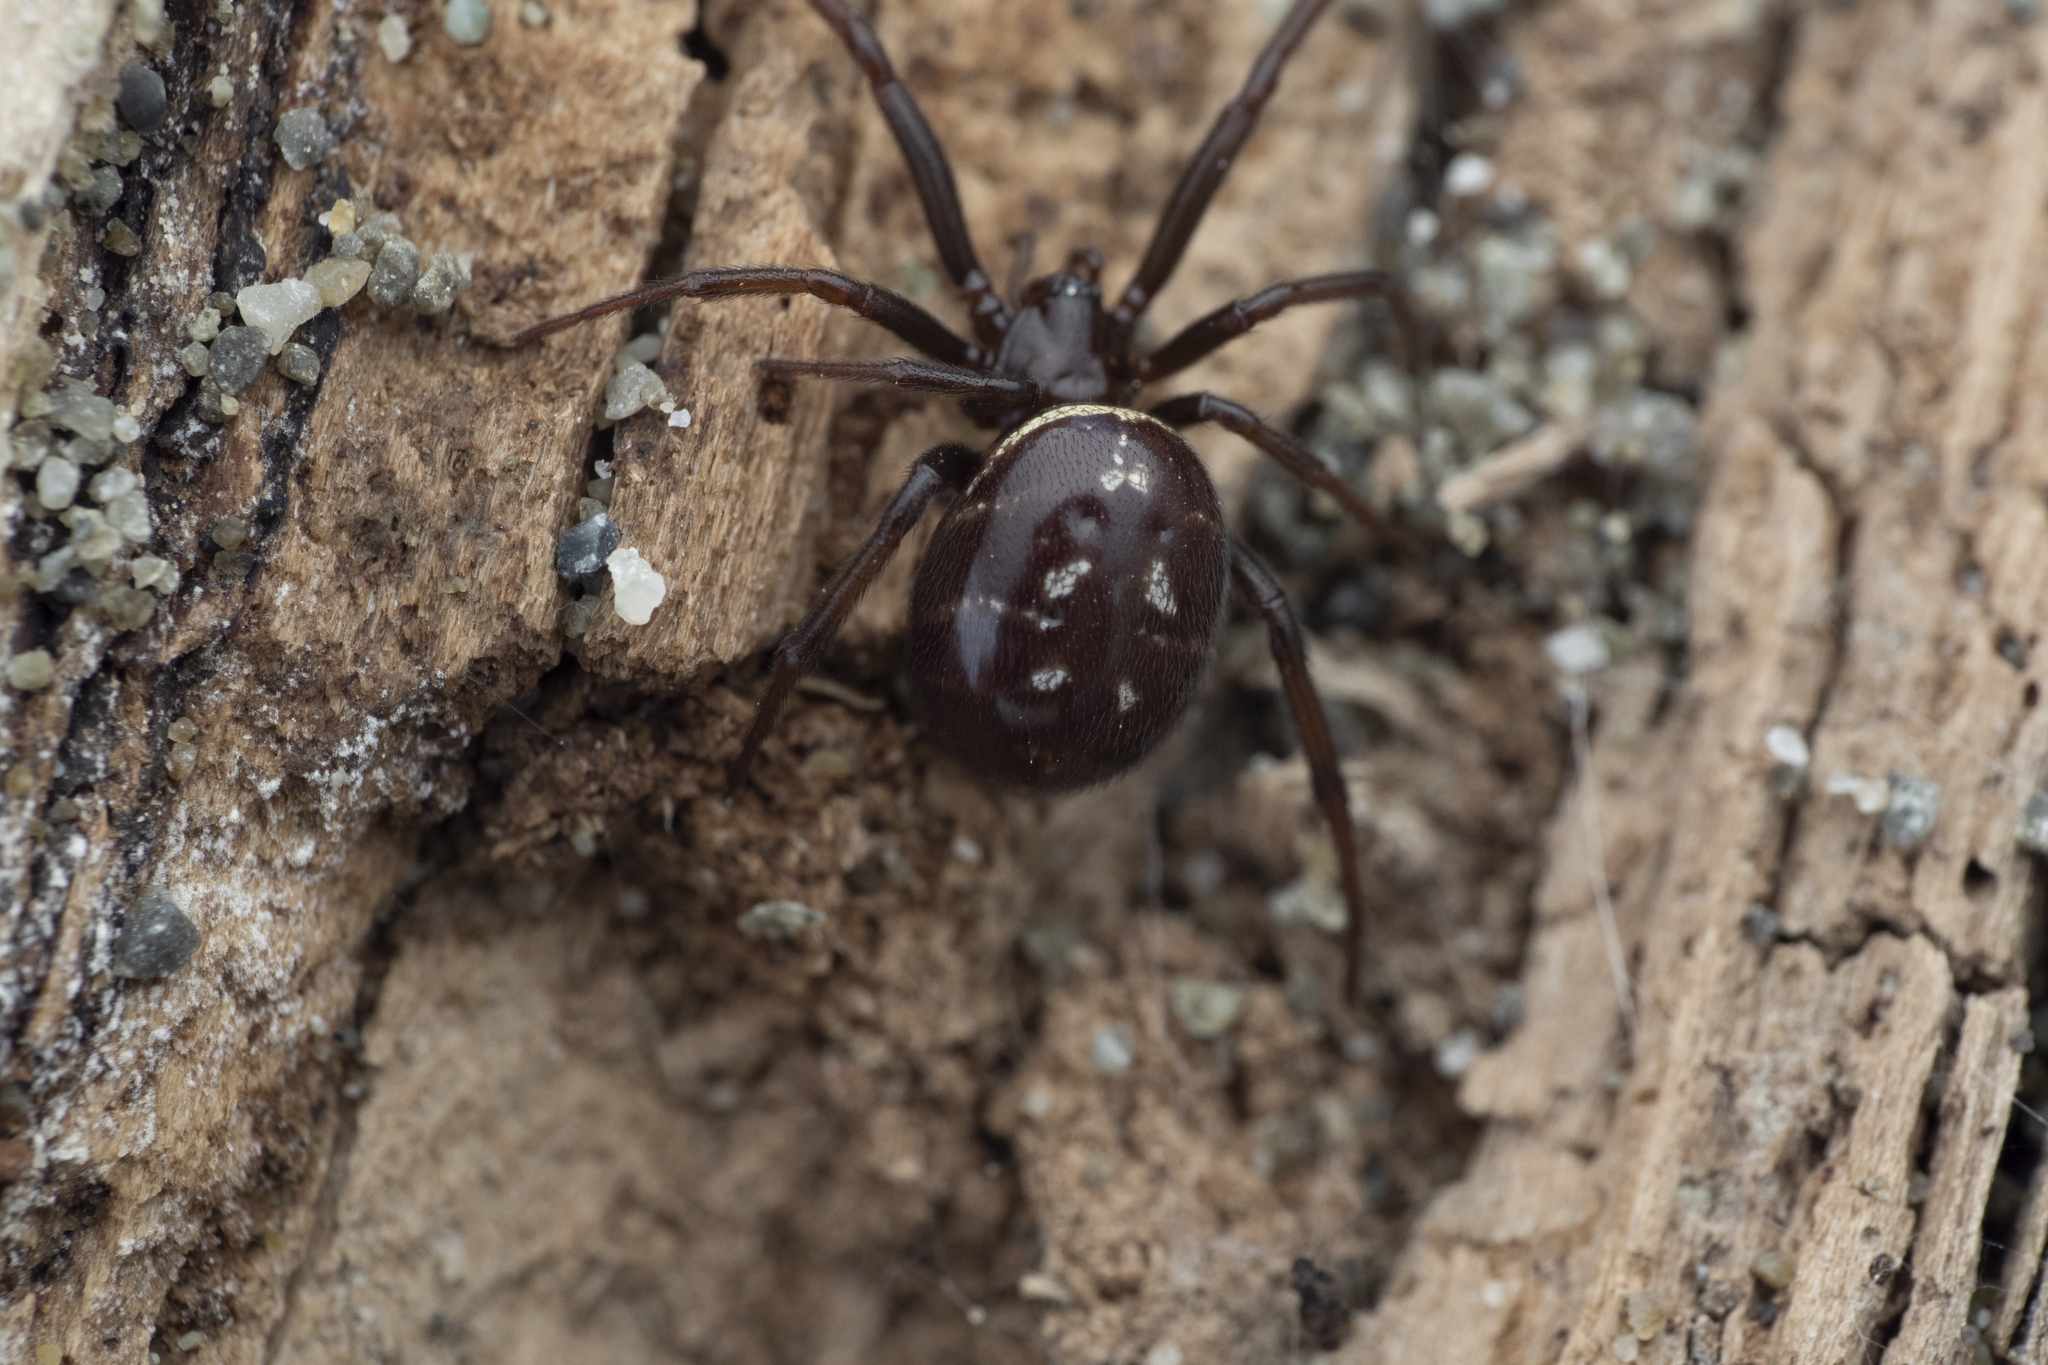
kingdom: Animalia
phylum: Arthropoda
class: Arachnida
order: Araneae
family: Theridiidae
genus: Steatoda
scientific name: Steatoda capensis
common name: Cobweb weaver
